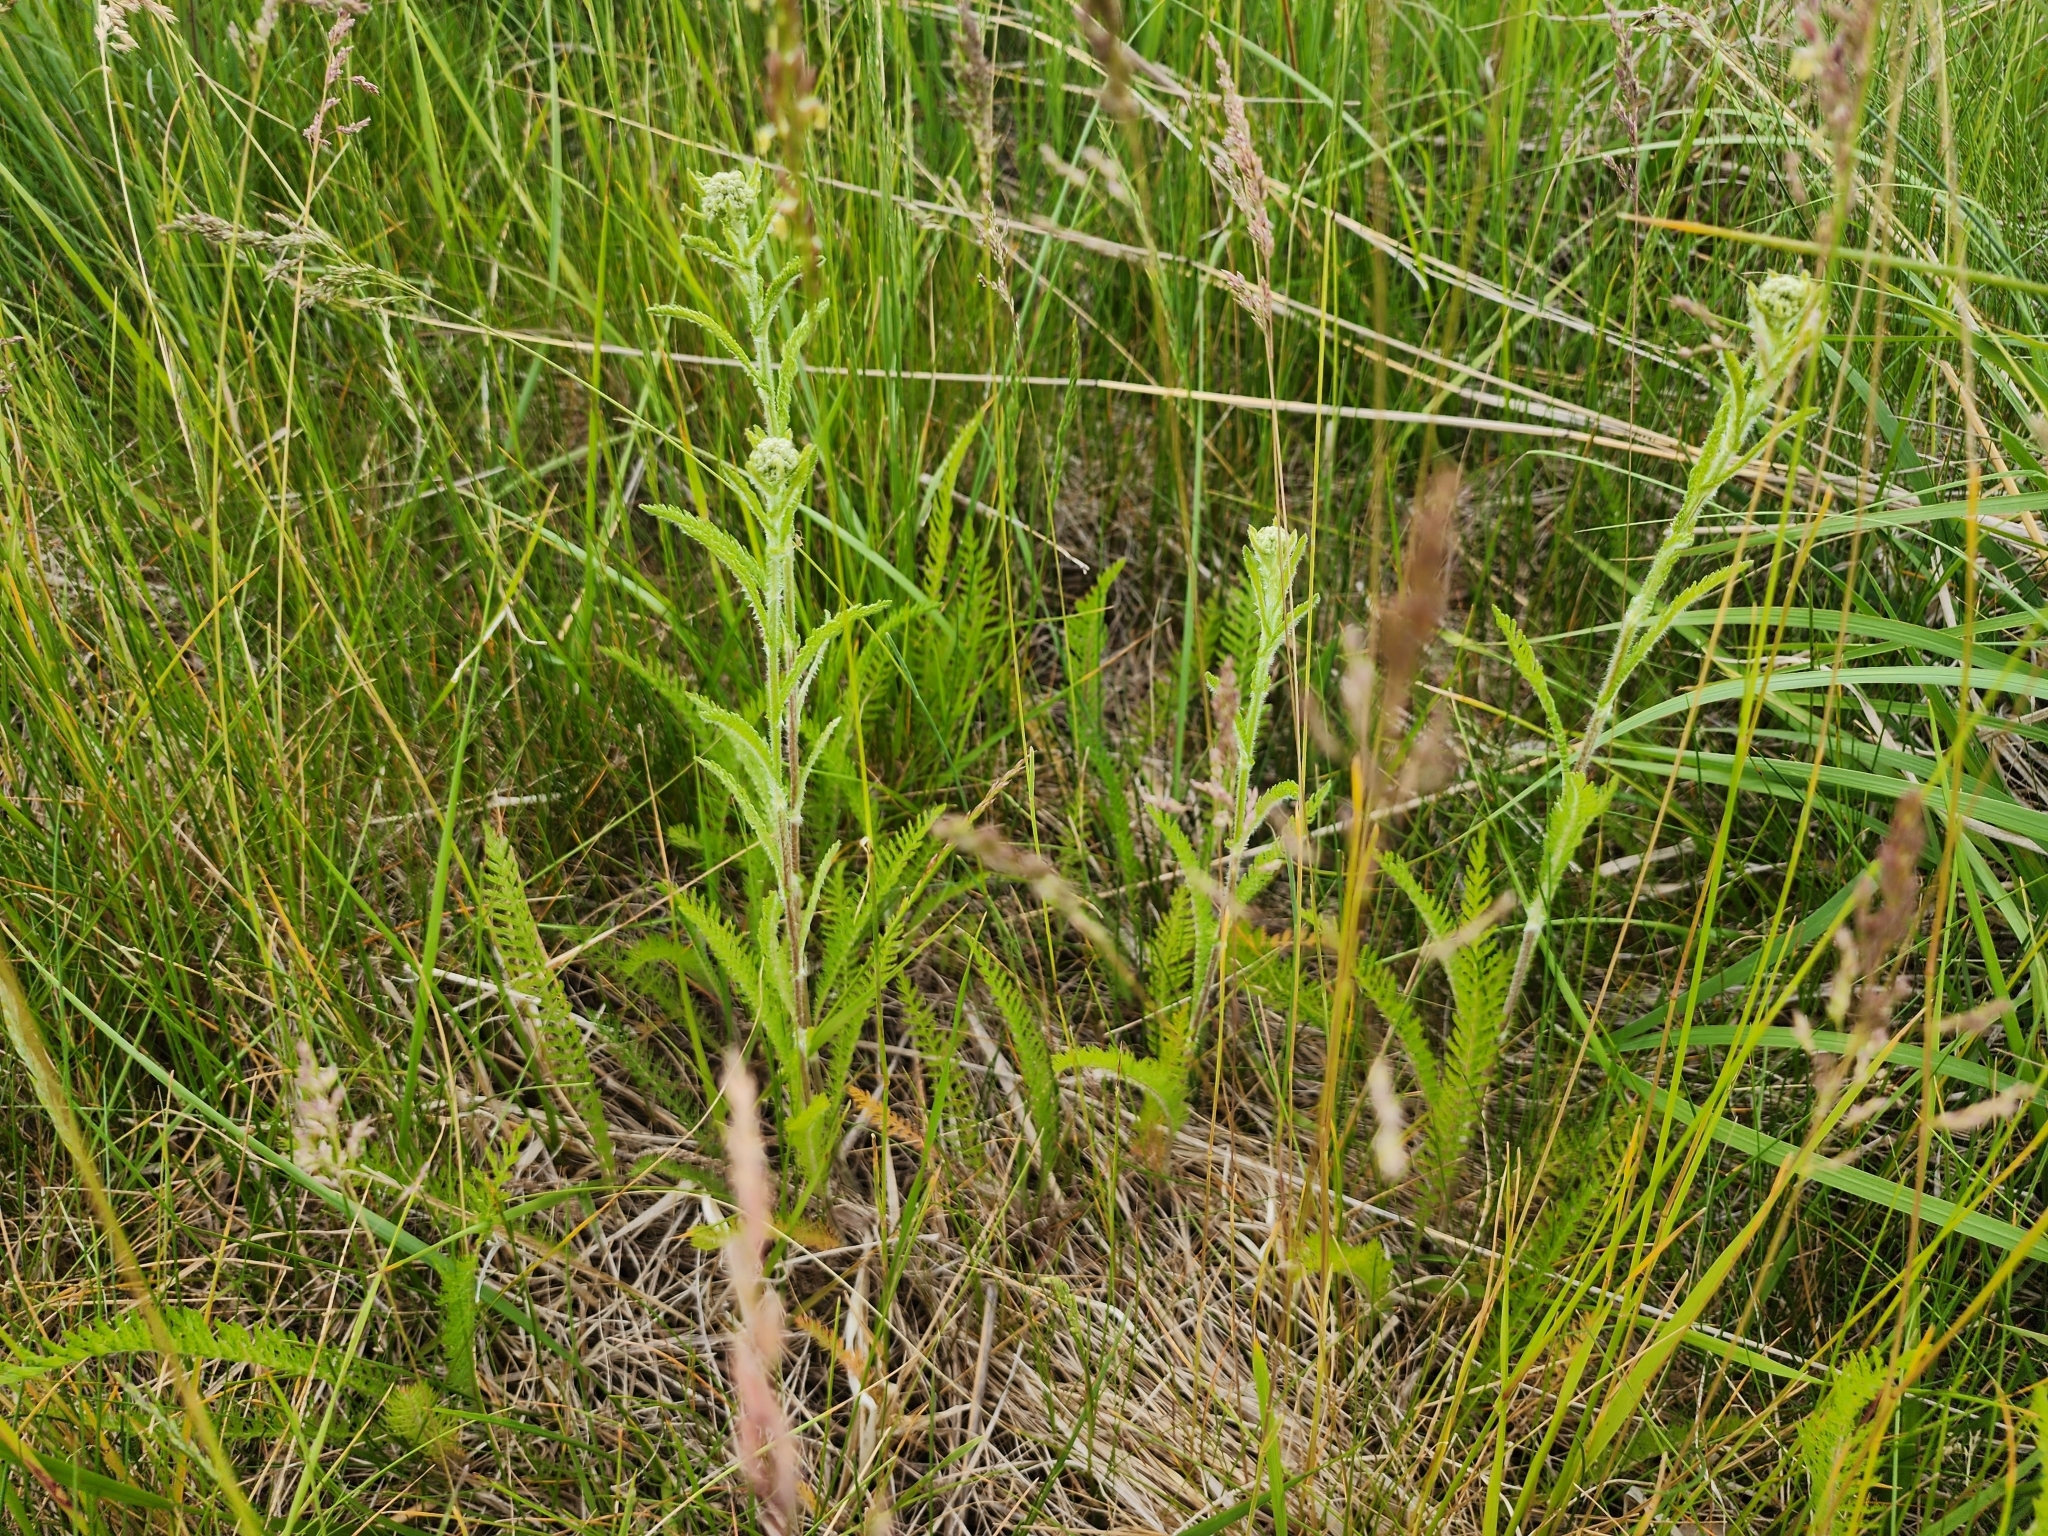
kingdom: Plantae
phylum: Tracheophyta
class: Magnoliopsida
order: Asterales
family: Asteraceae
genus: Achillea
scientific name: Achillea millefolium
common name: Yarrow
